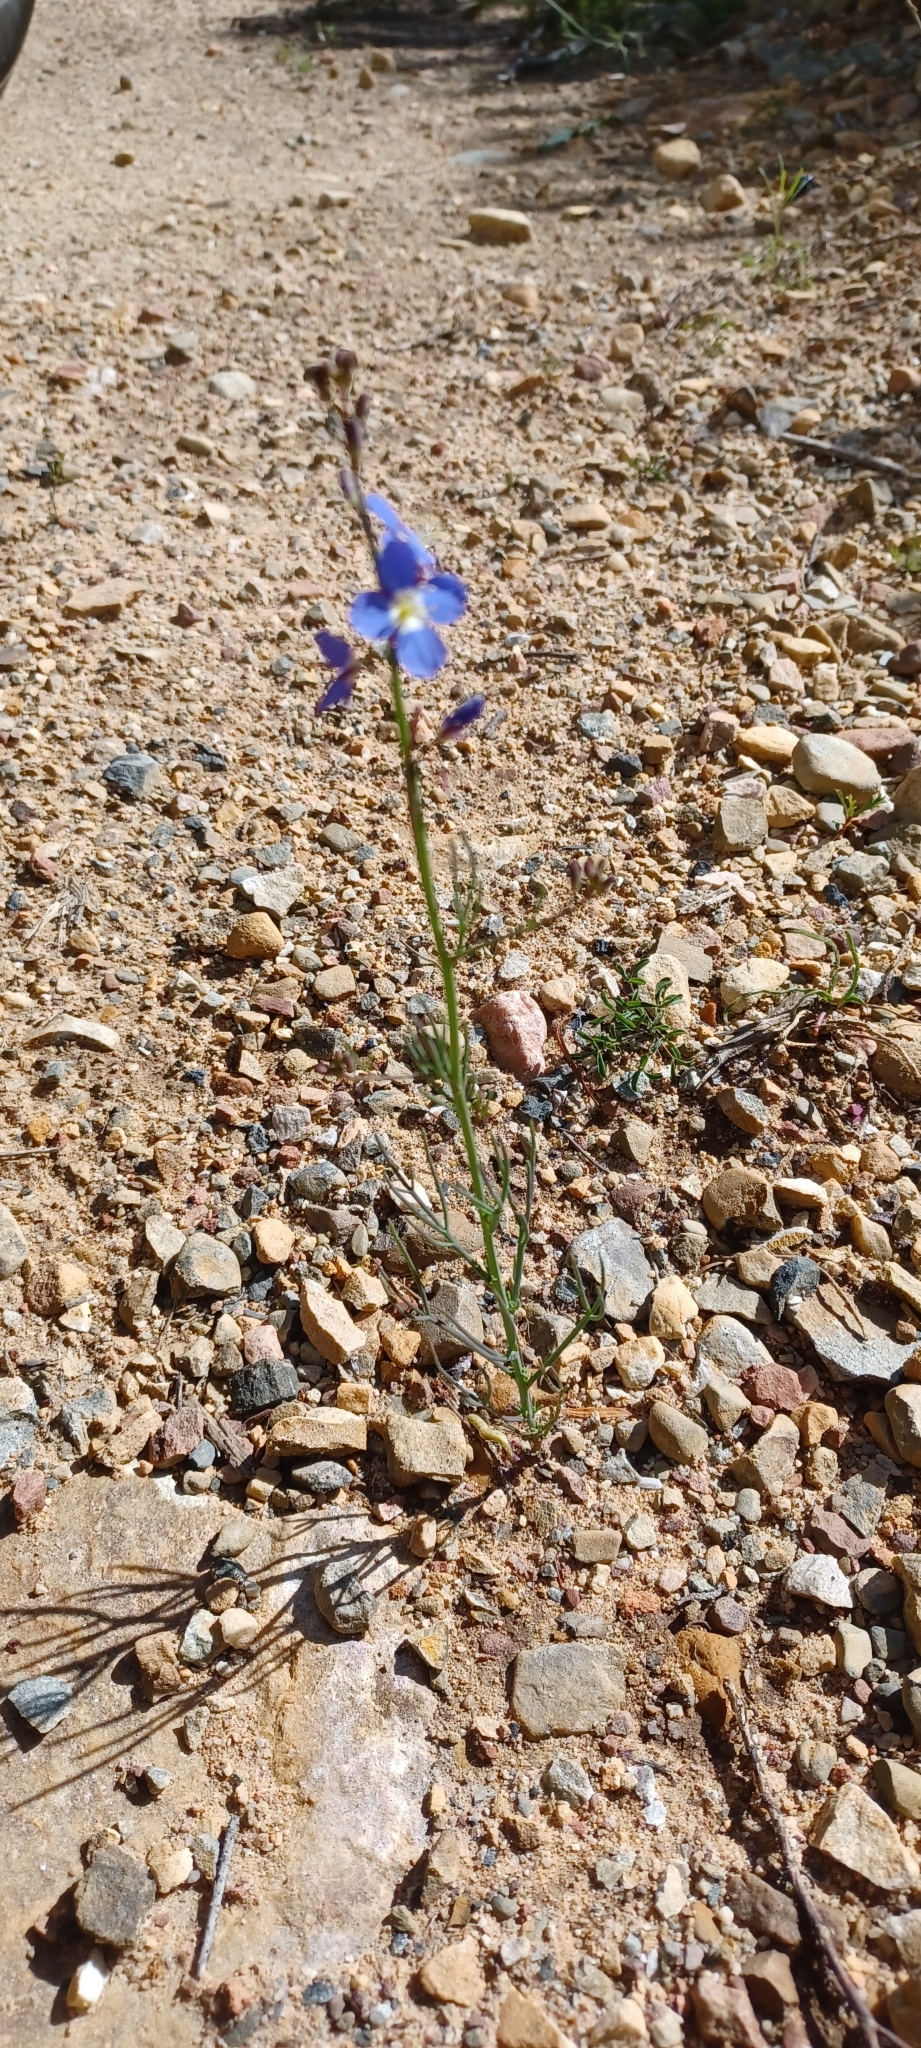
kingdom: Plantae
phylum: Tracheophyta
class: Magnoliopsida
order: Brassicales
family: Brassicaceae
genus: Heliophila
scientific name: Heliophila bulbostyla
